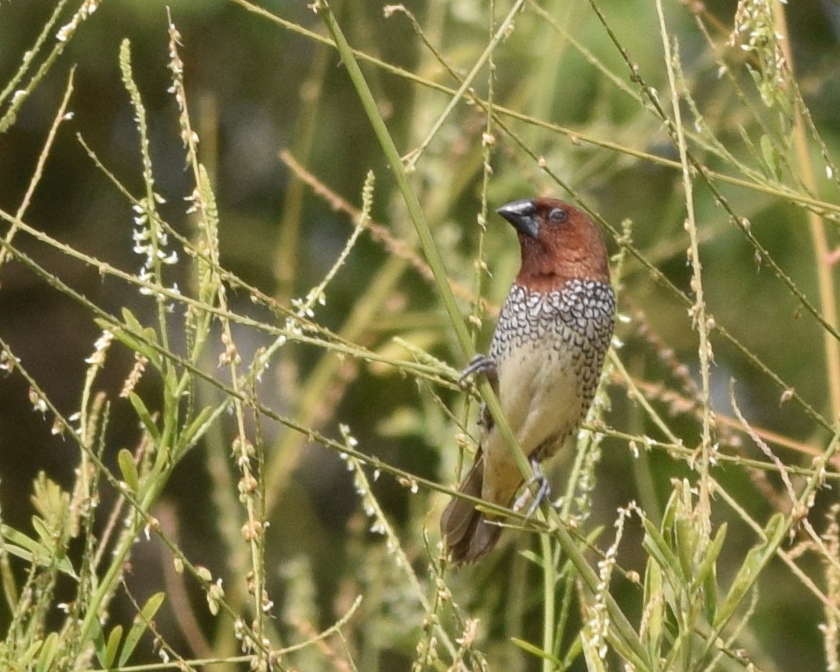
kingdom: Animalia
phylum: Chordata
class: Aves
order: Passeriformes
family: Estrildidae
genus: Lonchura
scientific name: Lonchura punctulata
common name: Scaly-breasted munia
